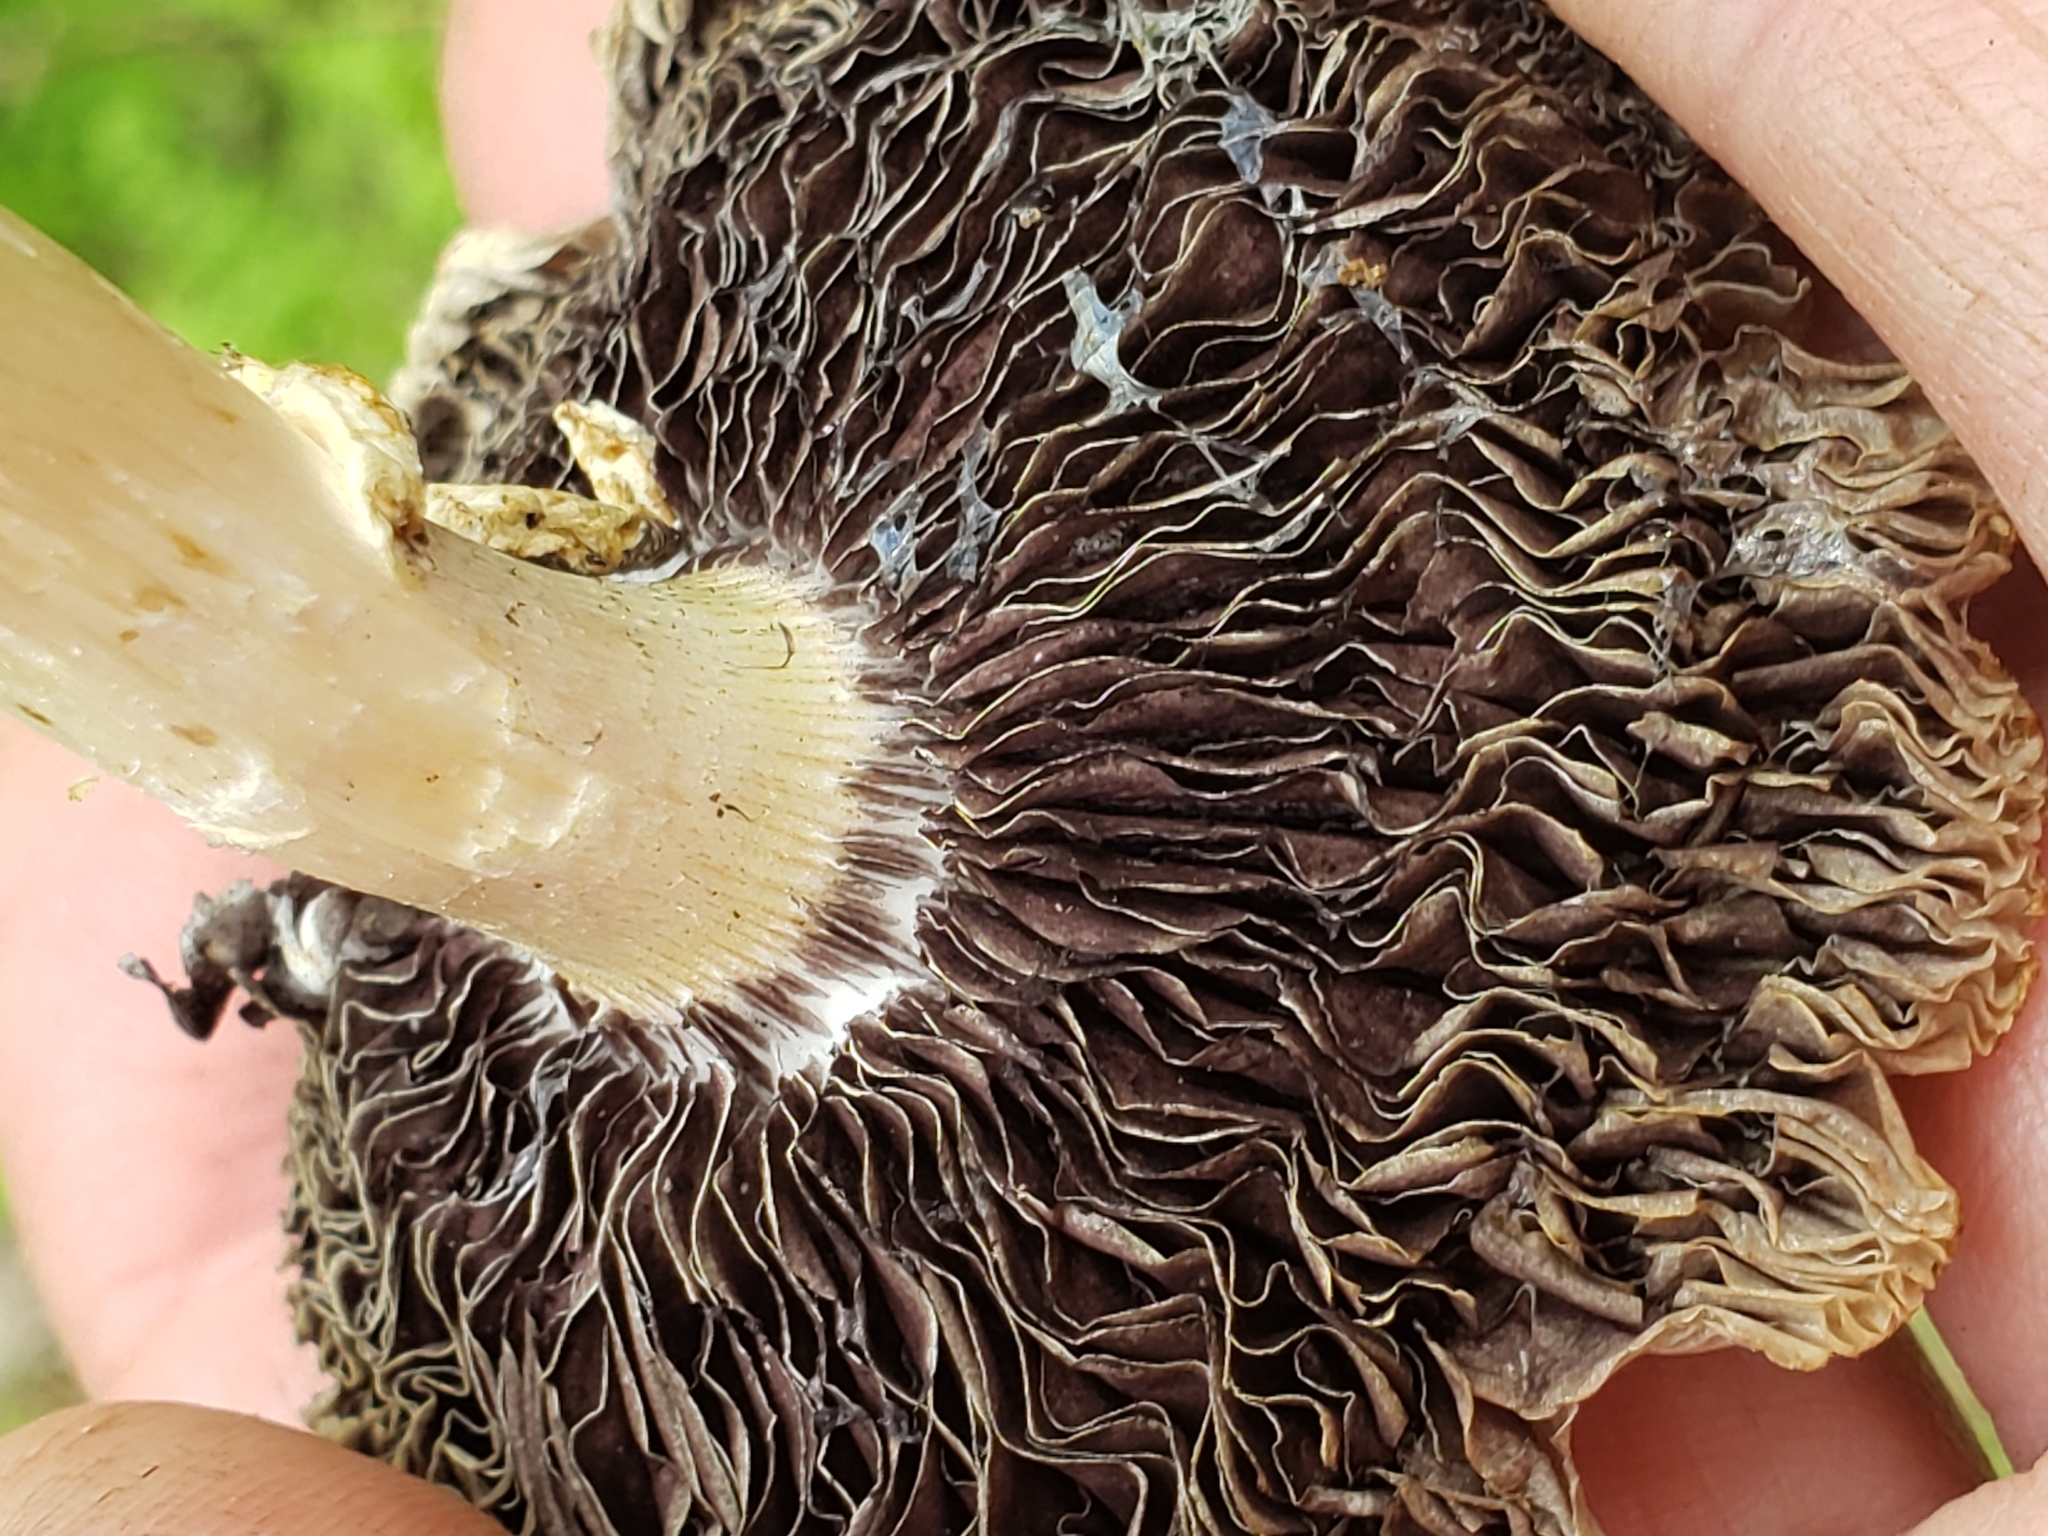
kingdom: Fungi
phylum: Basidiomycota
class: Agaricomycetes
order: Agaricales
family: Strophariaceae
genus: Stropharia
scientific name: Stropharia rugosoannulata
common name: Wine roundhead
